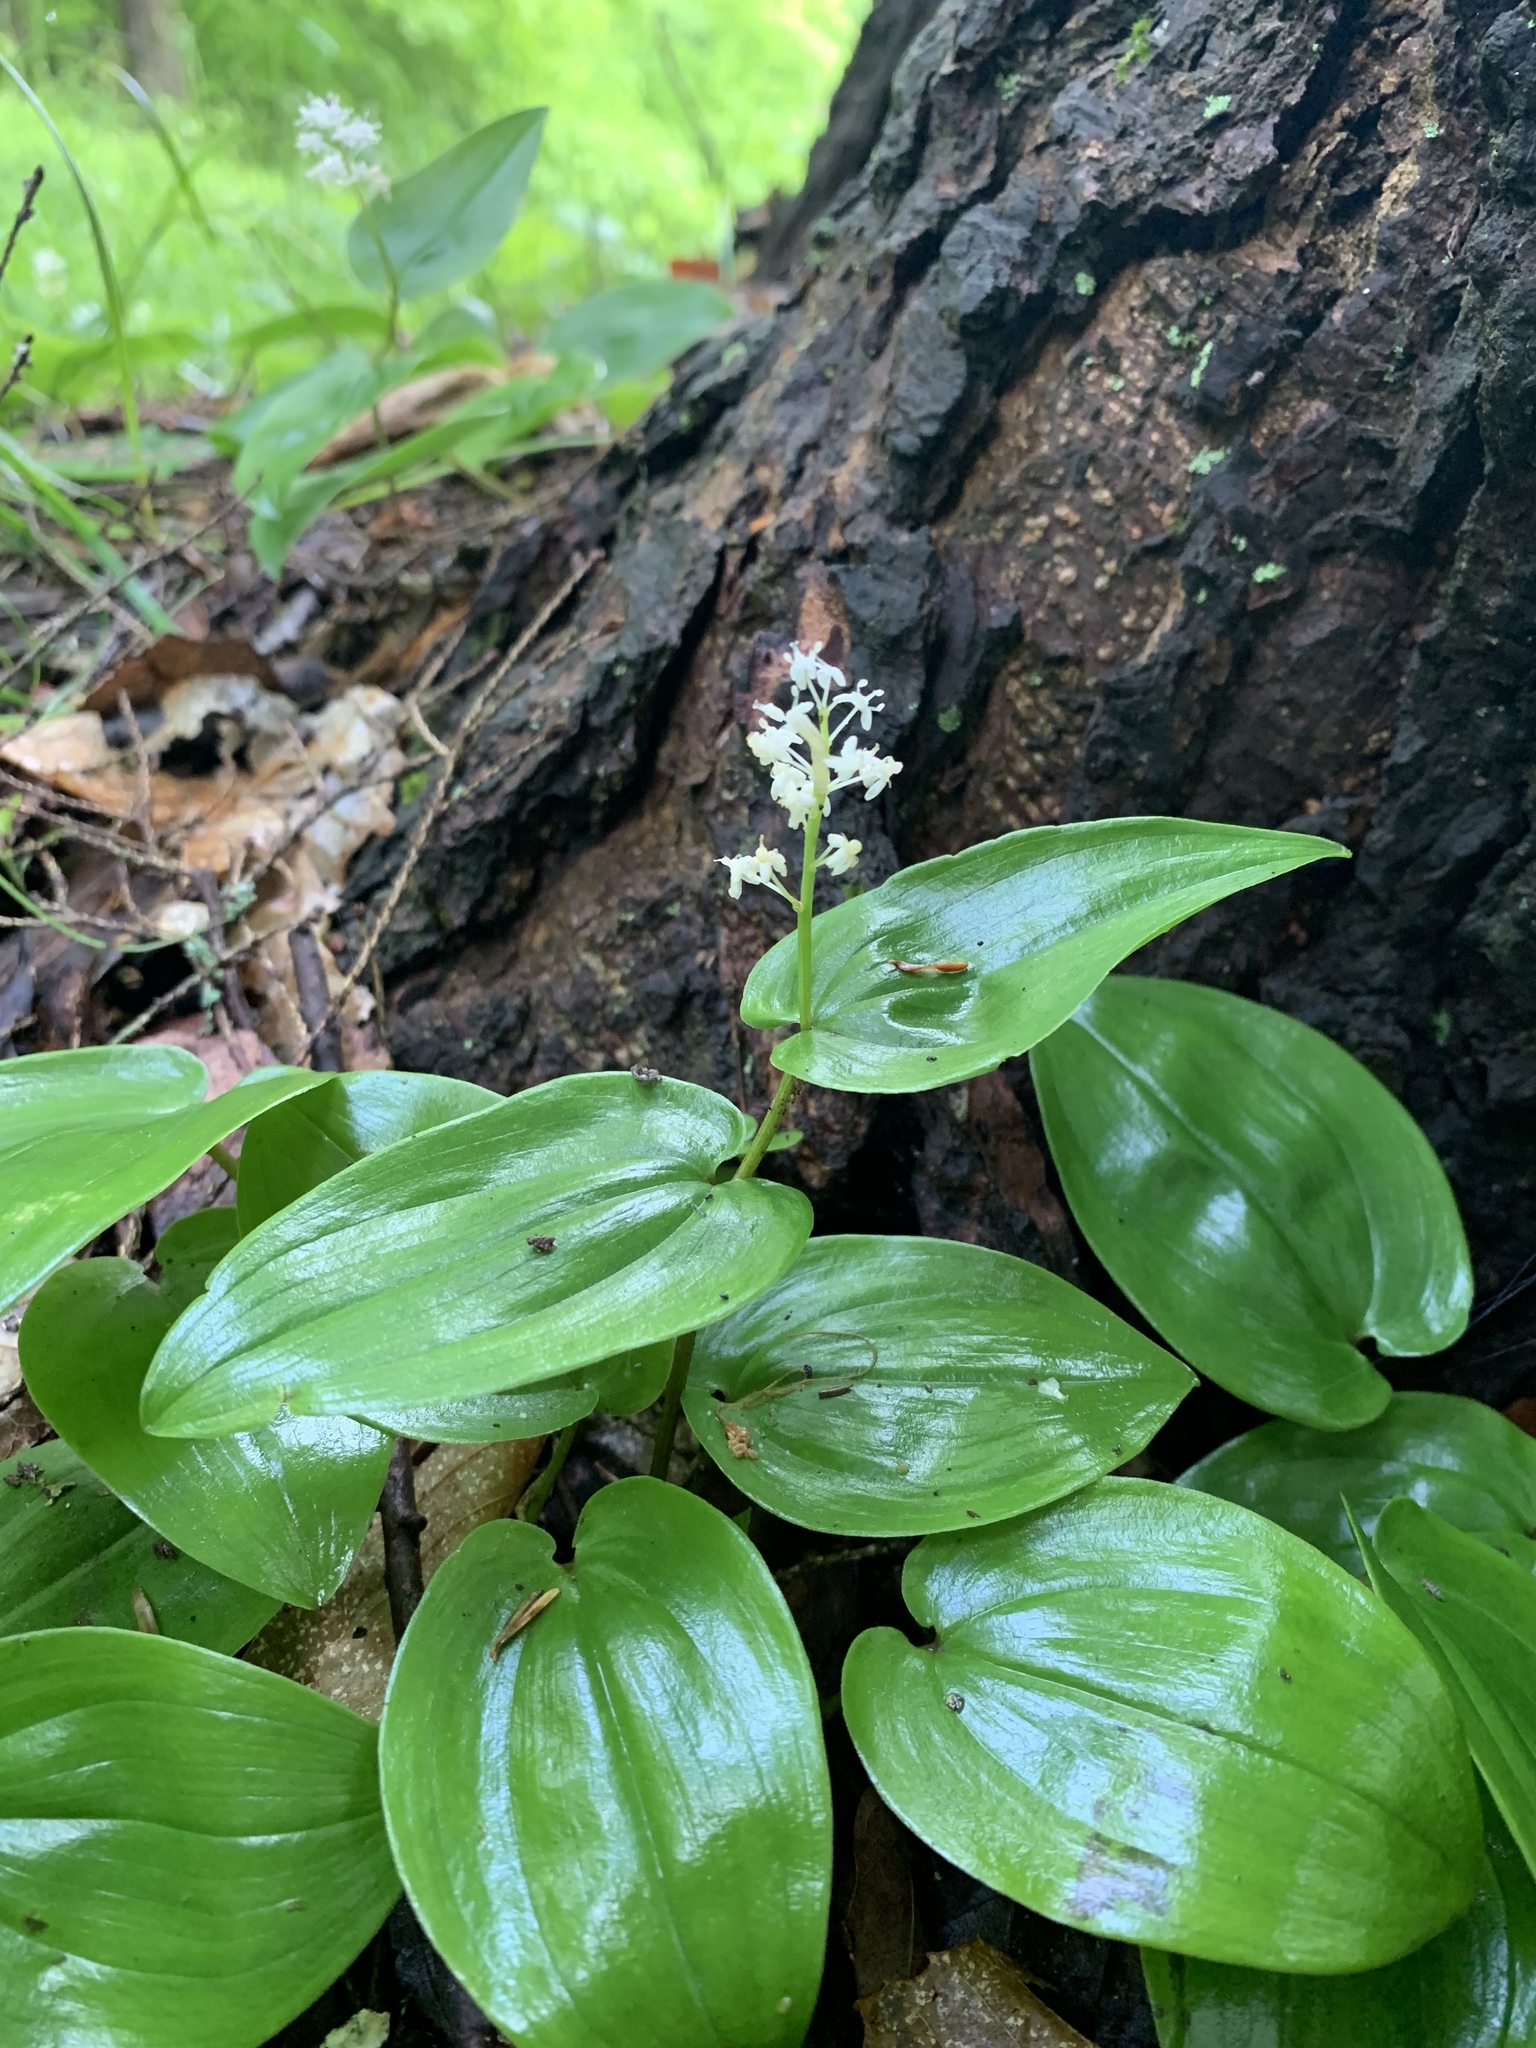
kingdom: Plantae
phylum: Tracheophyta
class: Liliopsida
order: Asparagales
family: Asparagaceae
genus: Maianthemum
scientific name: Maianthemum canadense
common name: False lily-of-the-valley
